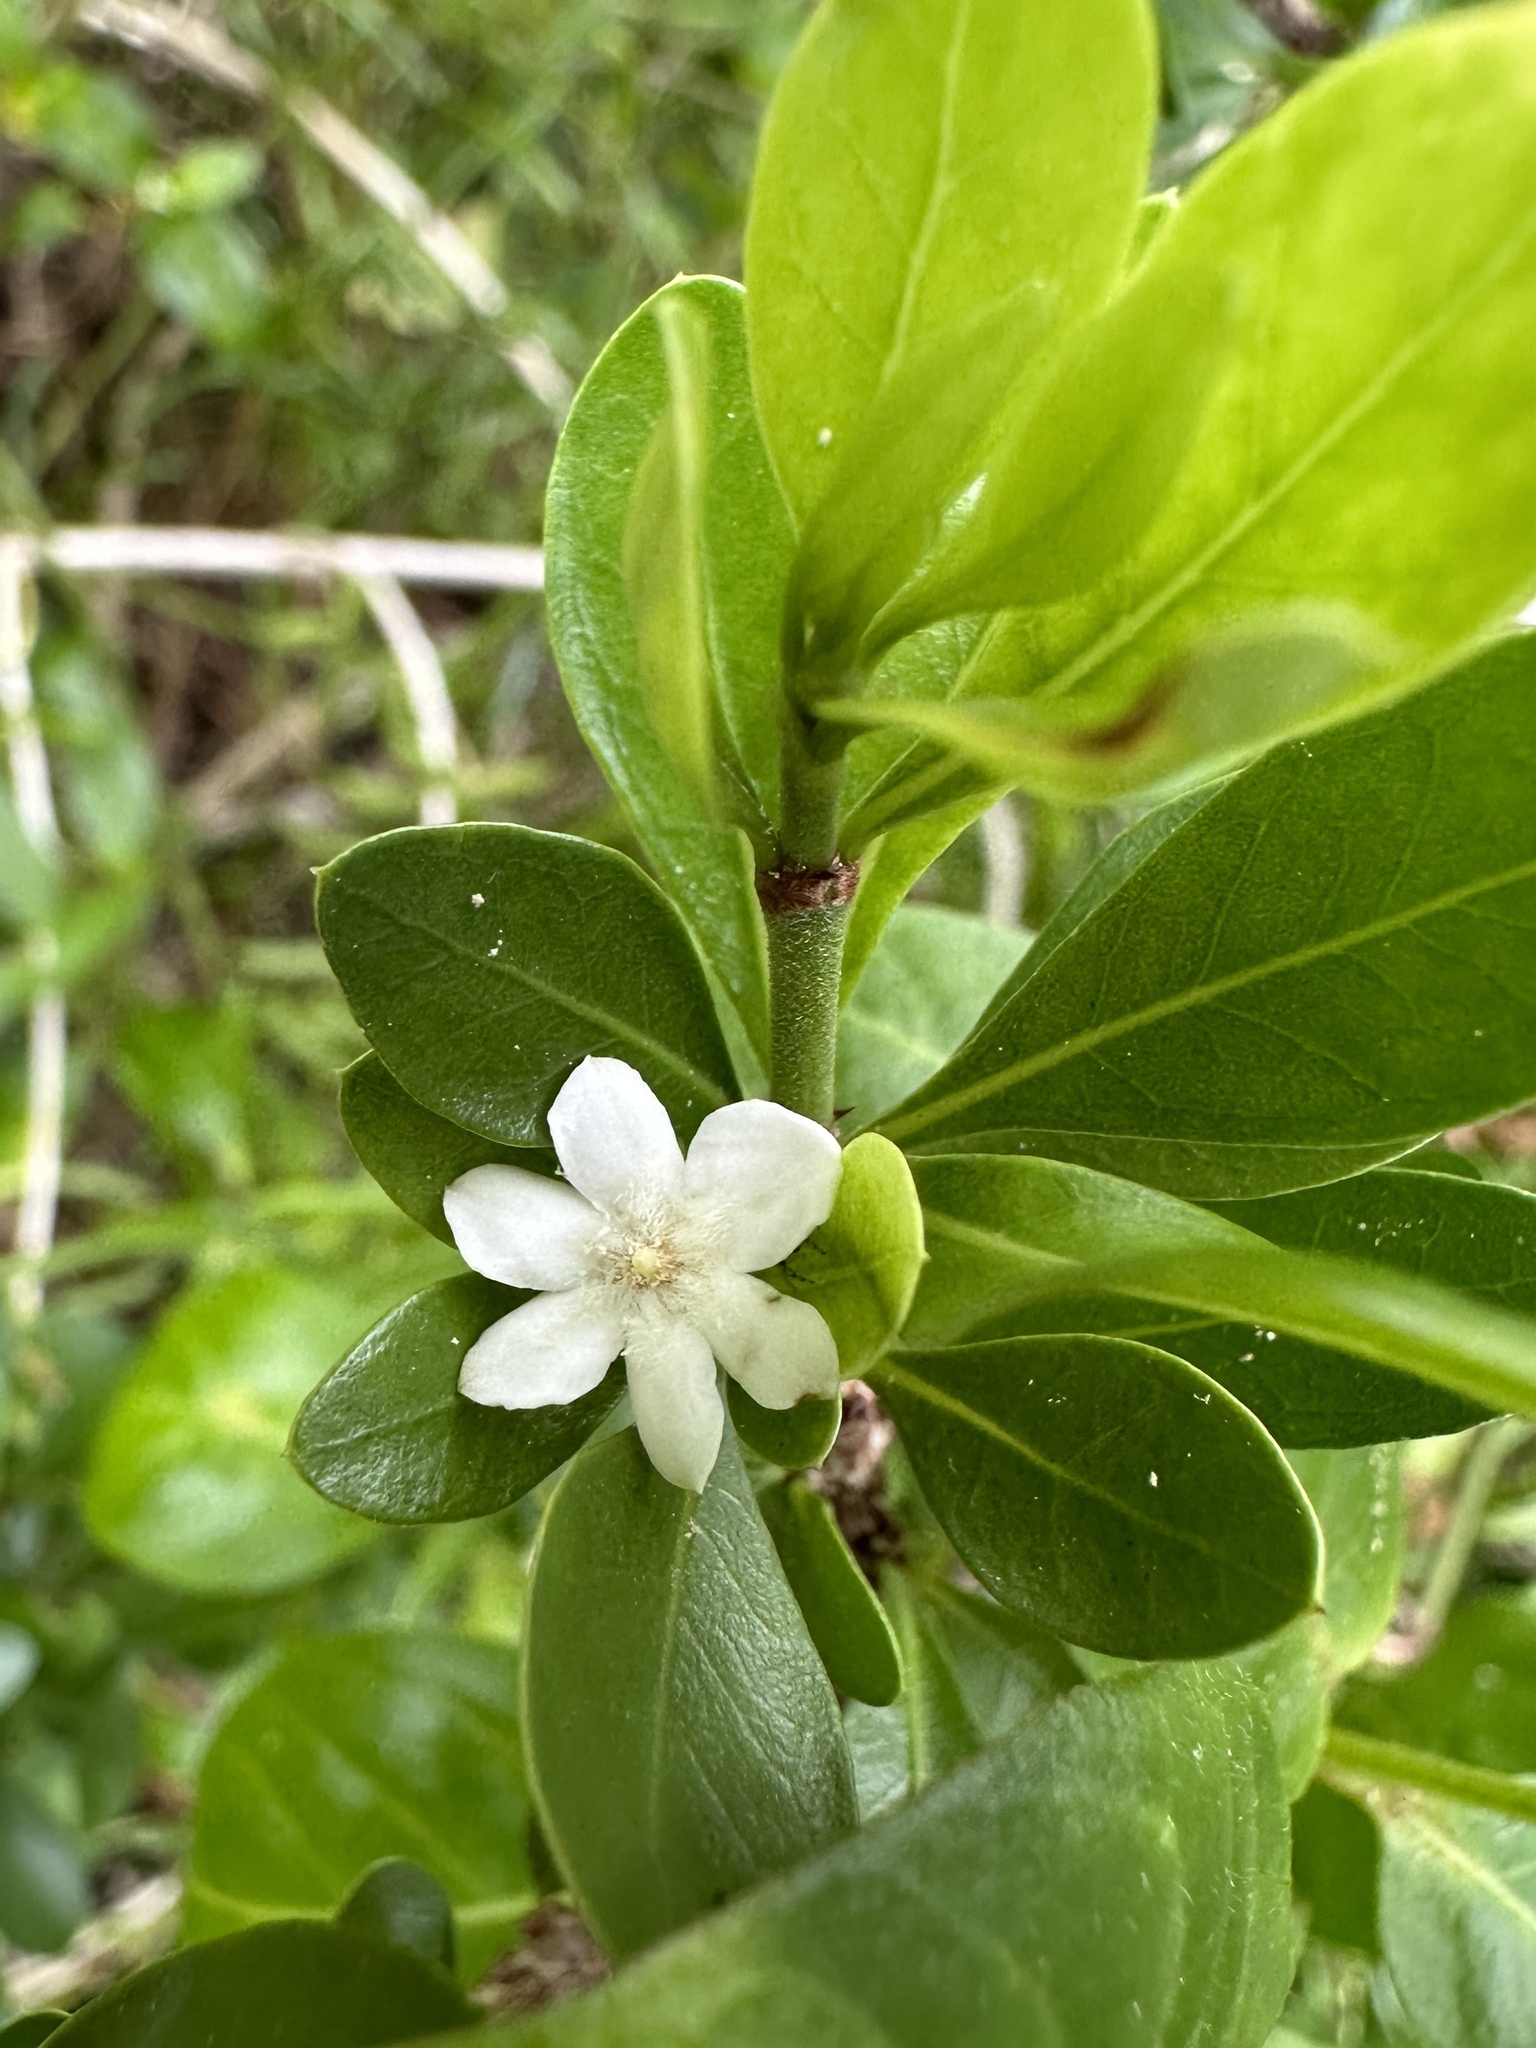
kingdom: Plantae
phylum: Tracheophyta
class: Magnoliopsida
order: Gentianales
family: Rubiaceae
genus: Randia
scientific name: Randia aculeata
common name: Inkberry
